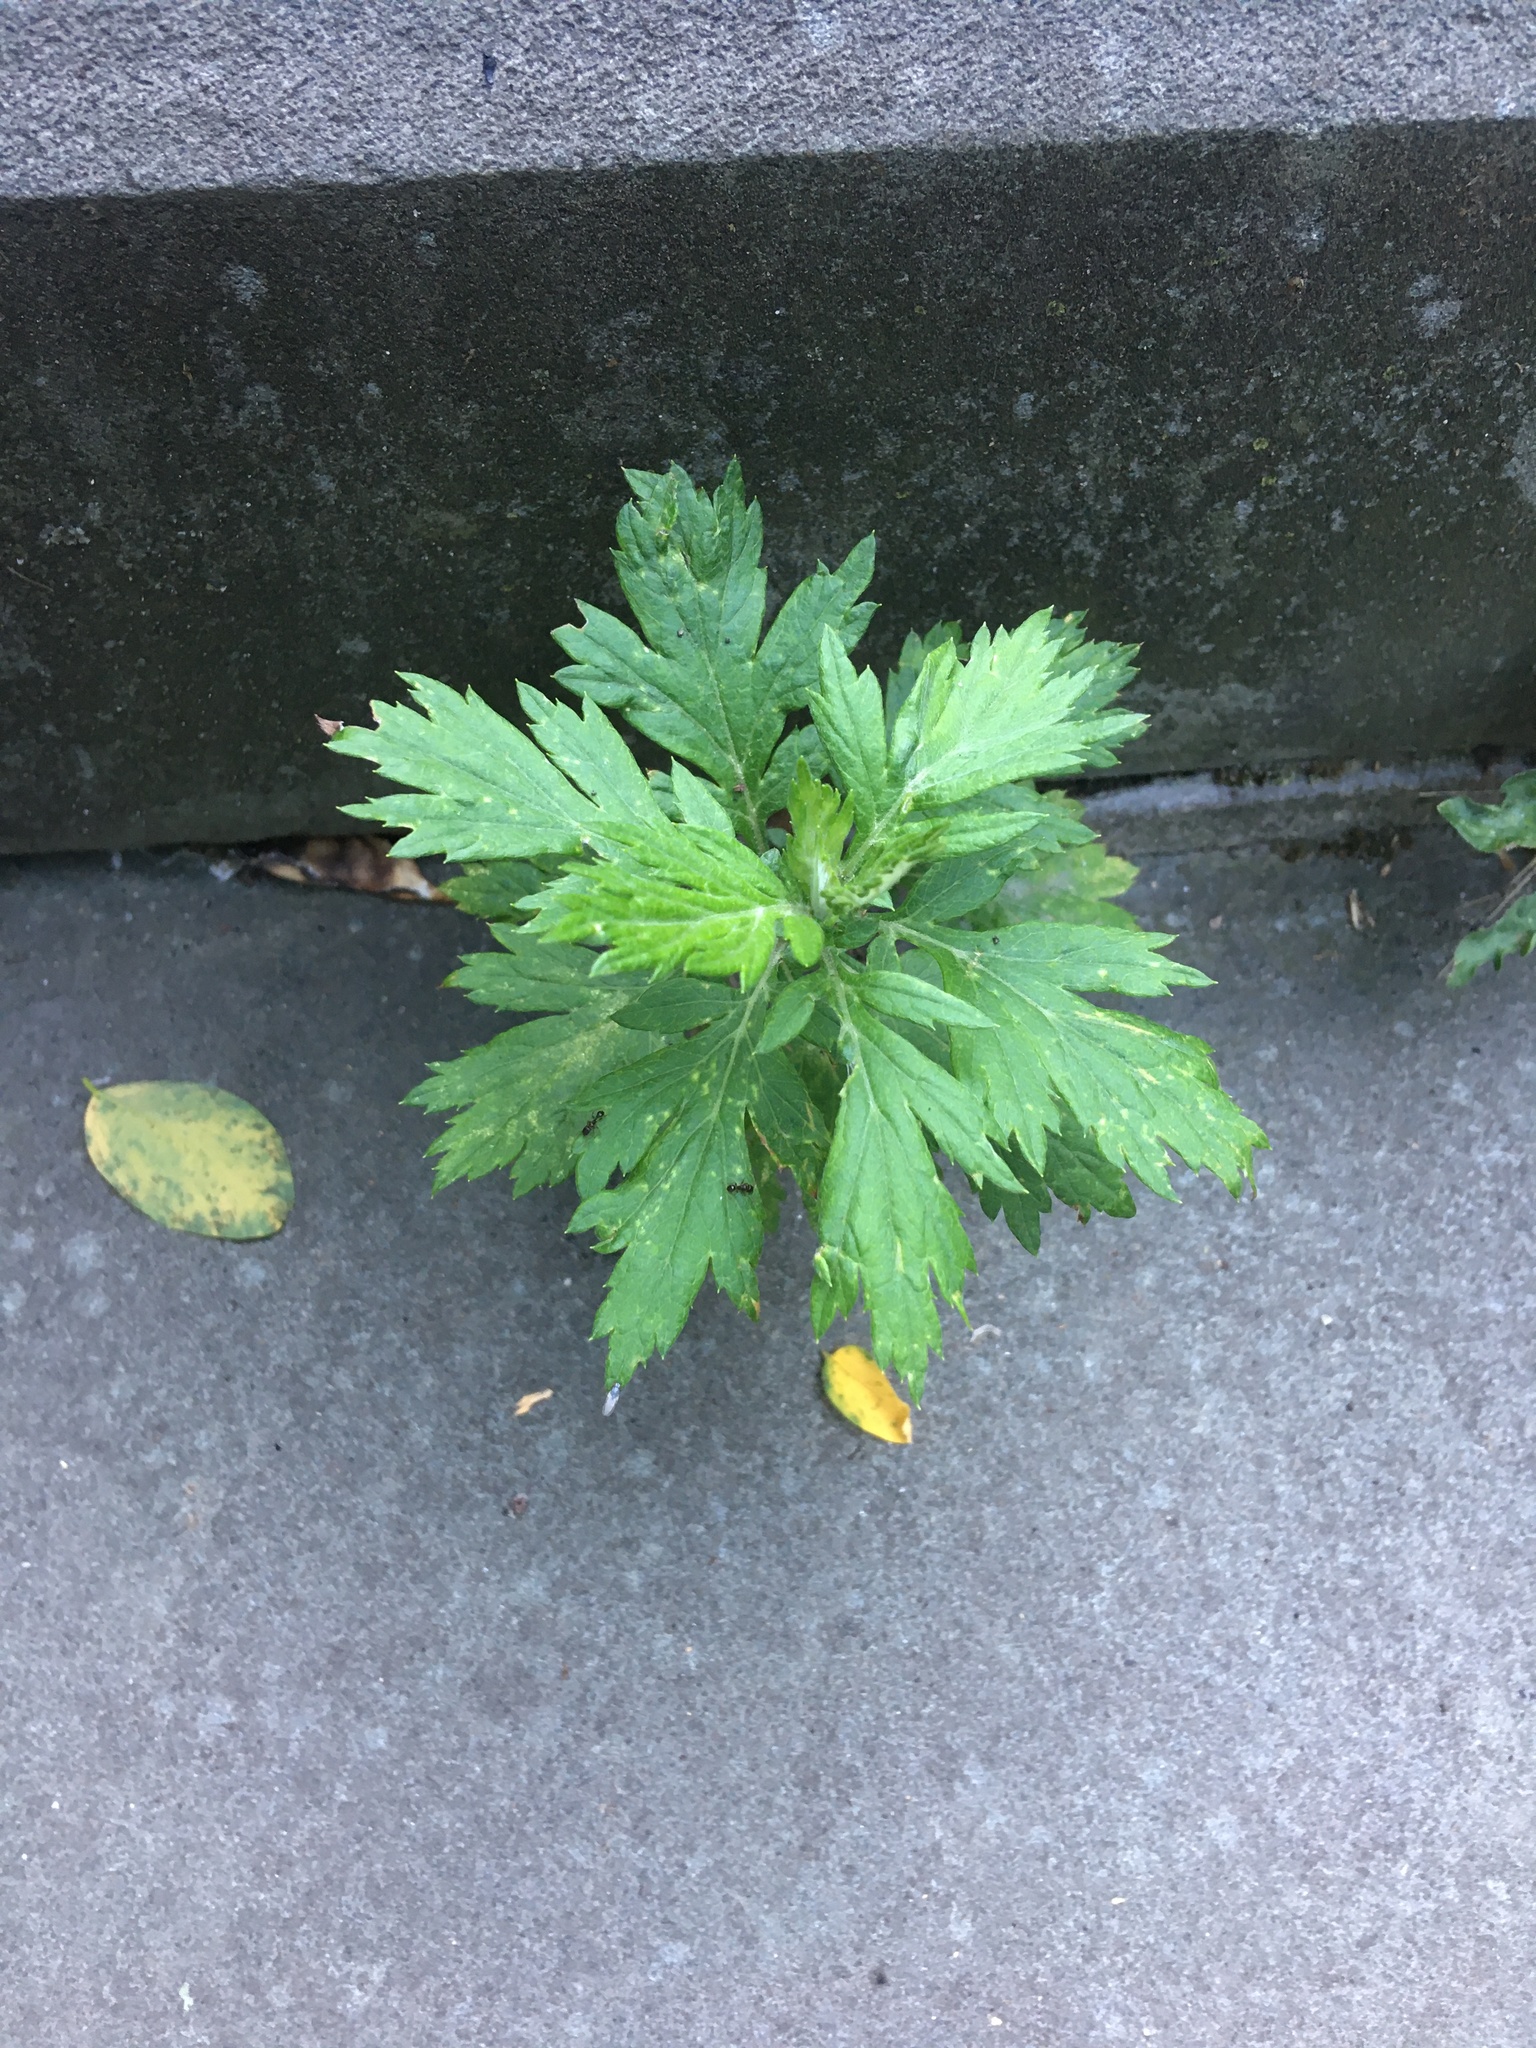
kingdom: Plantae
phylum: Tracheophyta
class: Magnoliopsida
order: Asterales
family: Asteraceae
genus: Artemisia
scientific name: Artemisia vulgaris
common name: Mugwort
